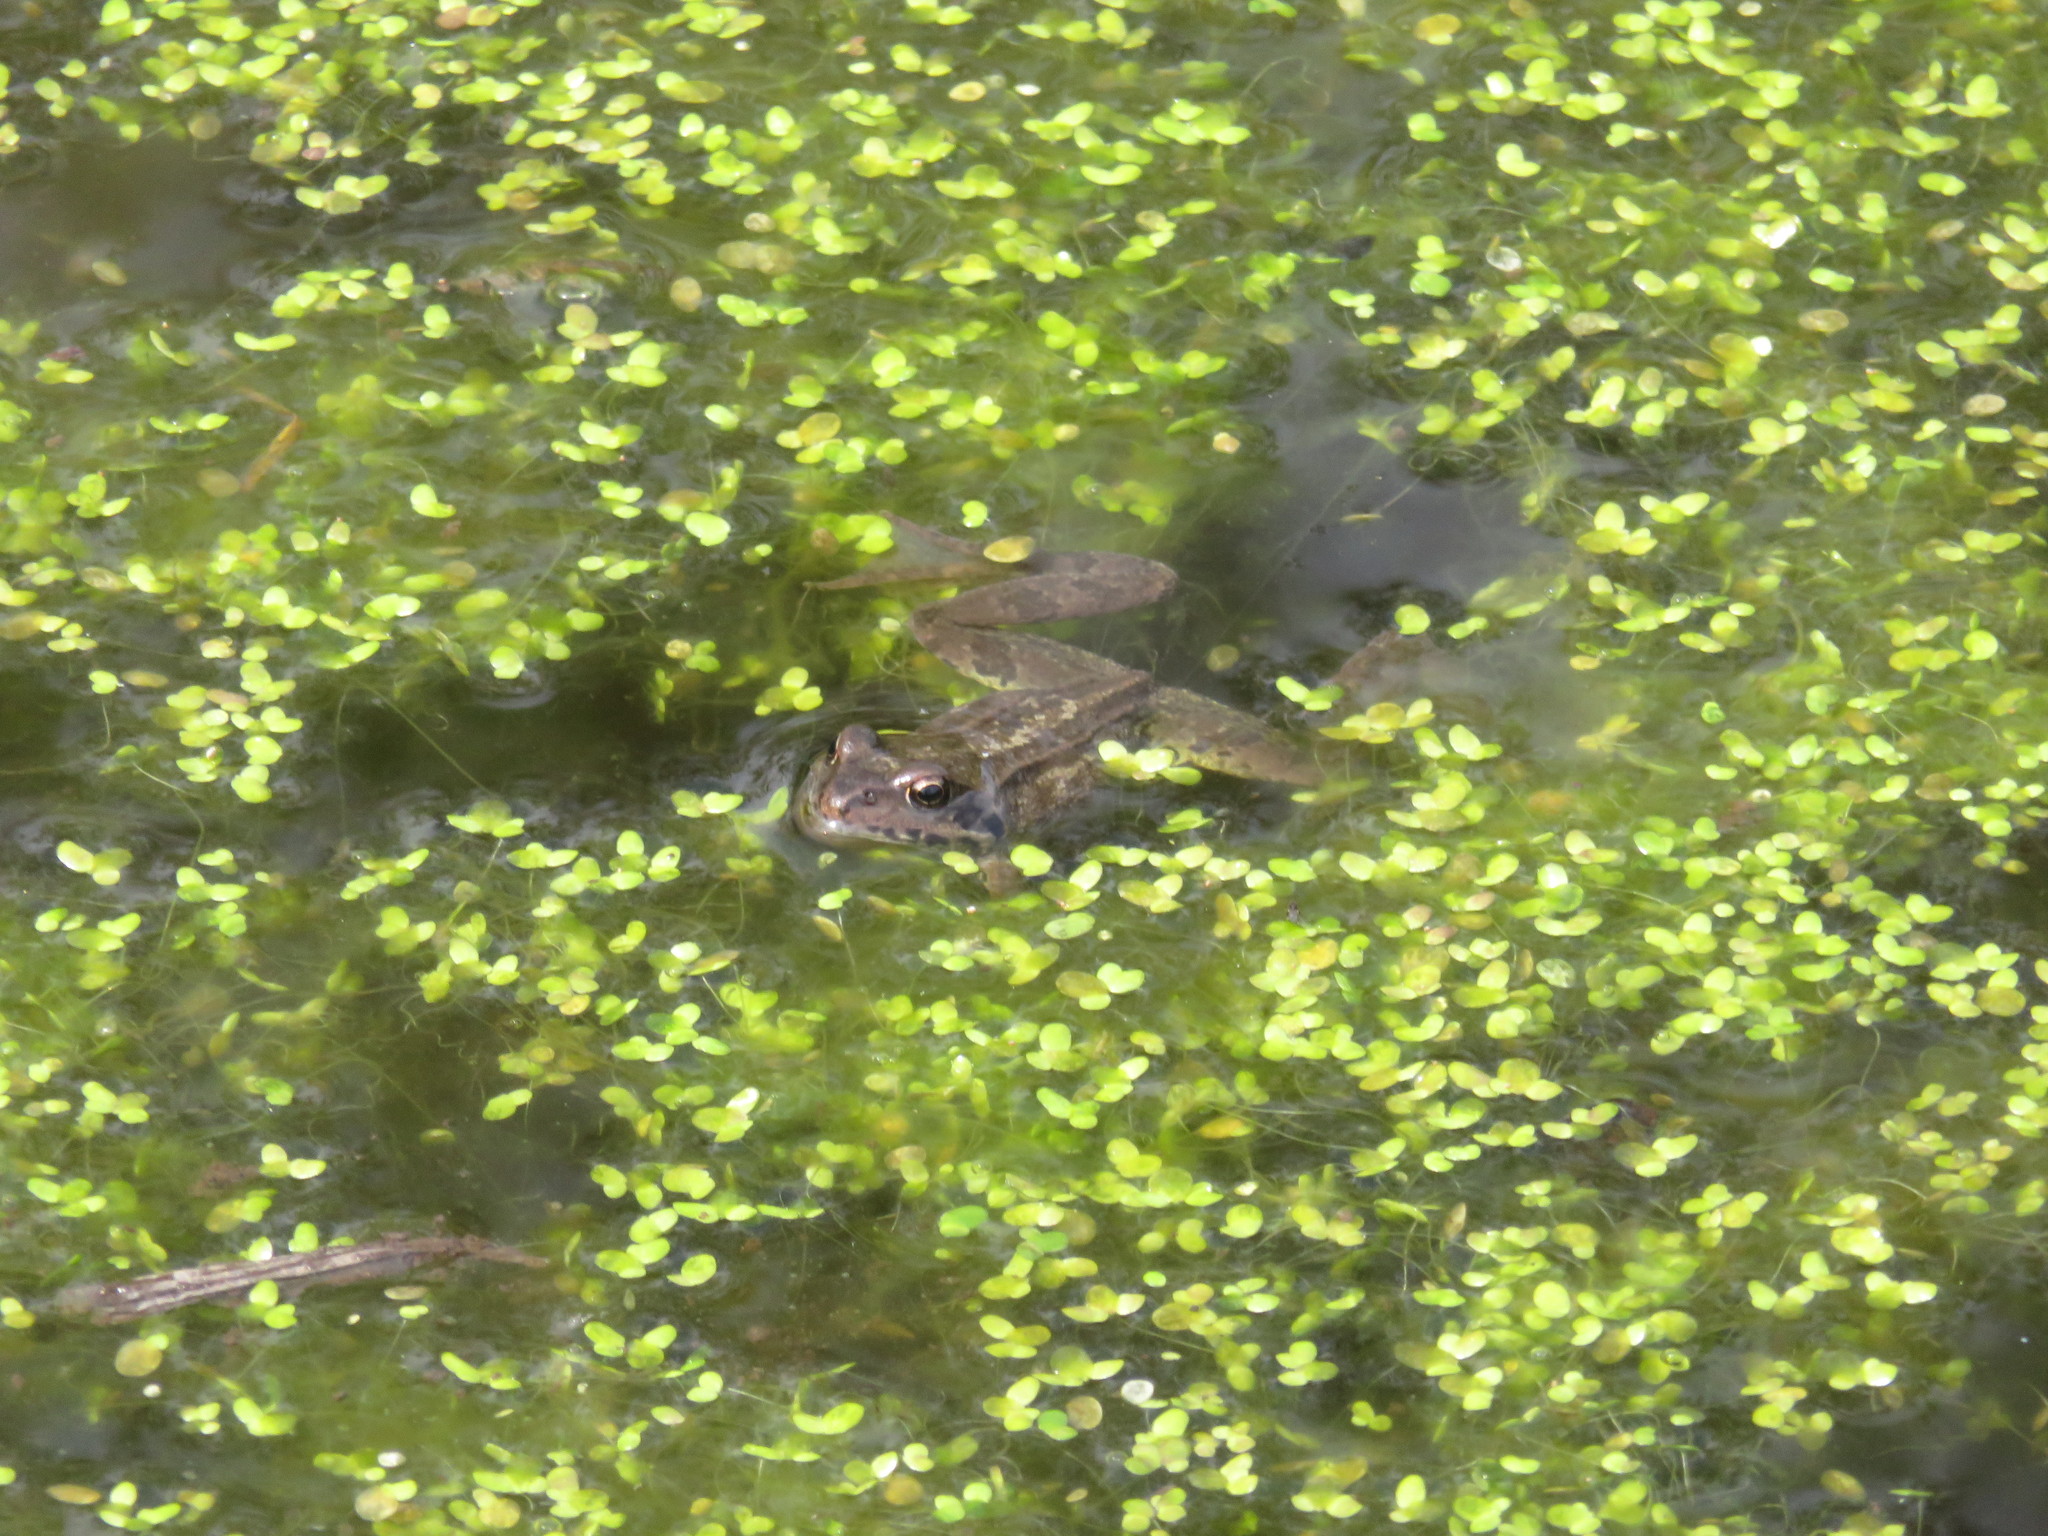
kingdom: Animalia
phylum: Chordata
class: Amphibia
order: Anura
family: Ranidae
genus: Rana
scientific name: Rana temporaria
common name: Common frog
